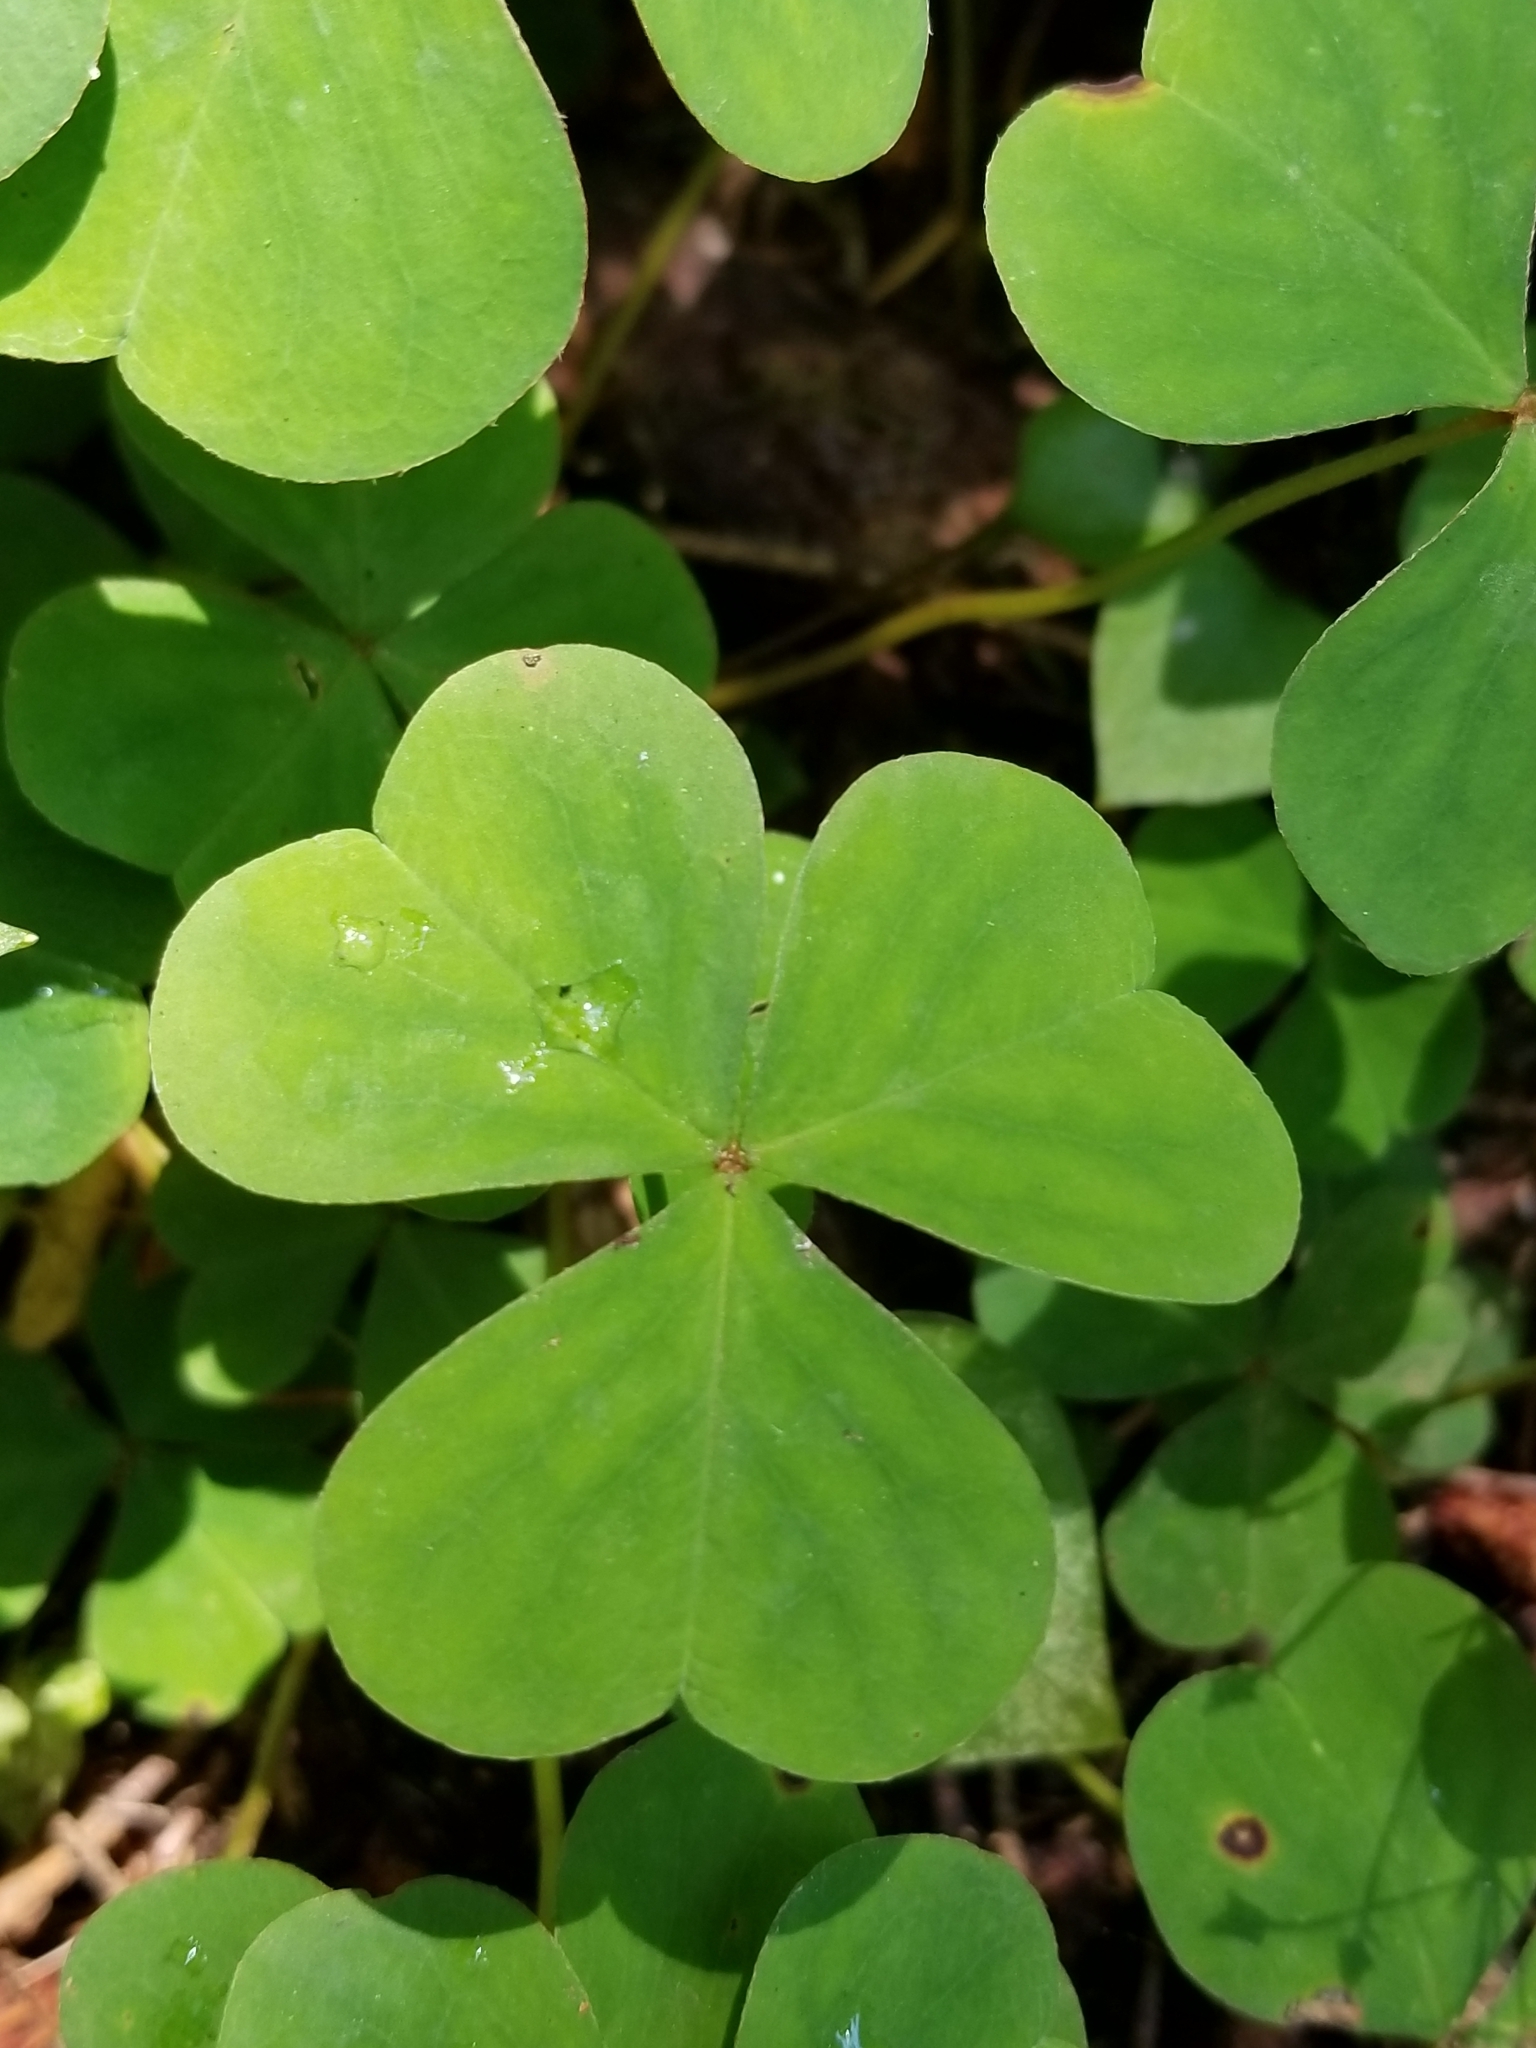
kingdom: Plantae
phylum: Tracheophyta
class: Magnoliopsida
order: Oxalidales
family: Oxalidaceae
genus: Oxalis
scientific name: Oxalis oregana
